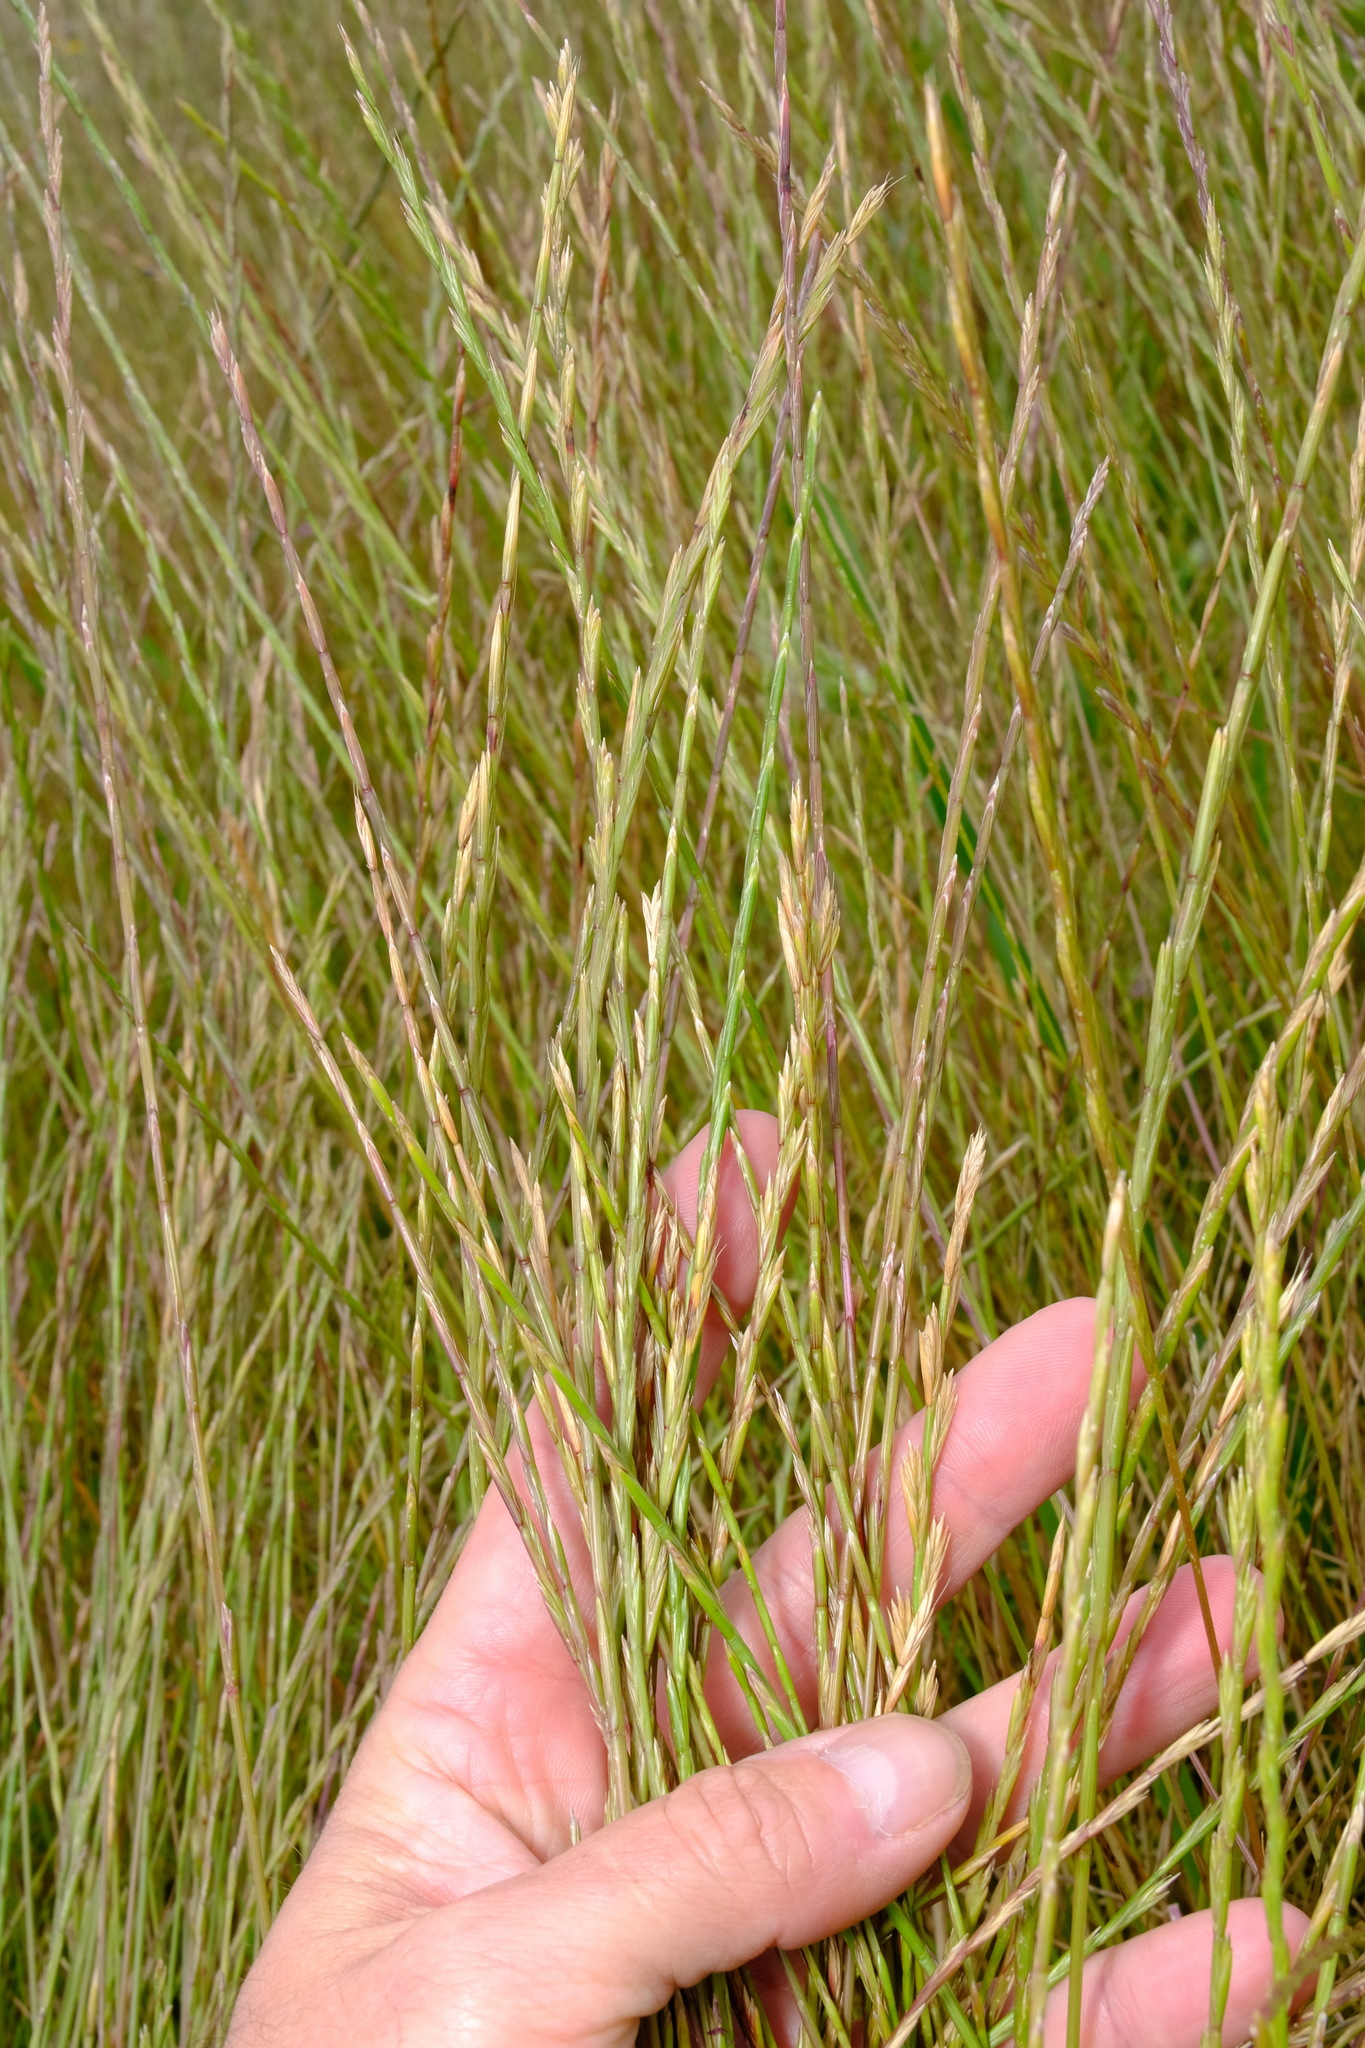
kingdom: Plantae
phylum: Tracheophyta
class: Liliopsida
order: Poales
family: Poaceae
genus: Lolium
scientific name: Lolium rigidum
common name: Wimmera ryegrass
